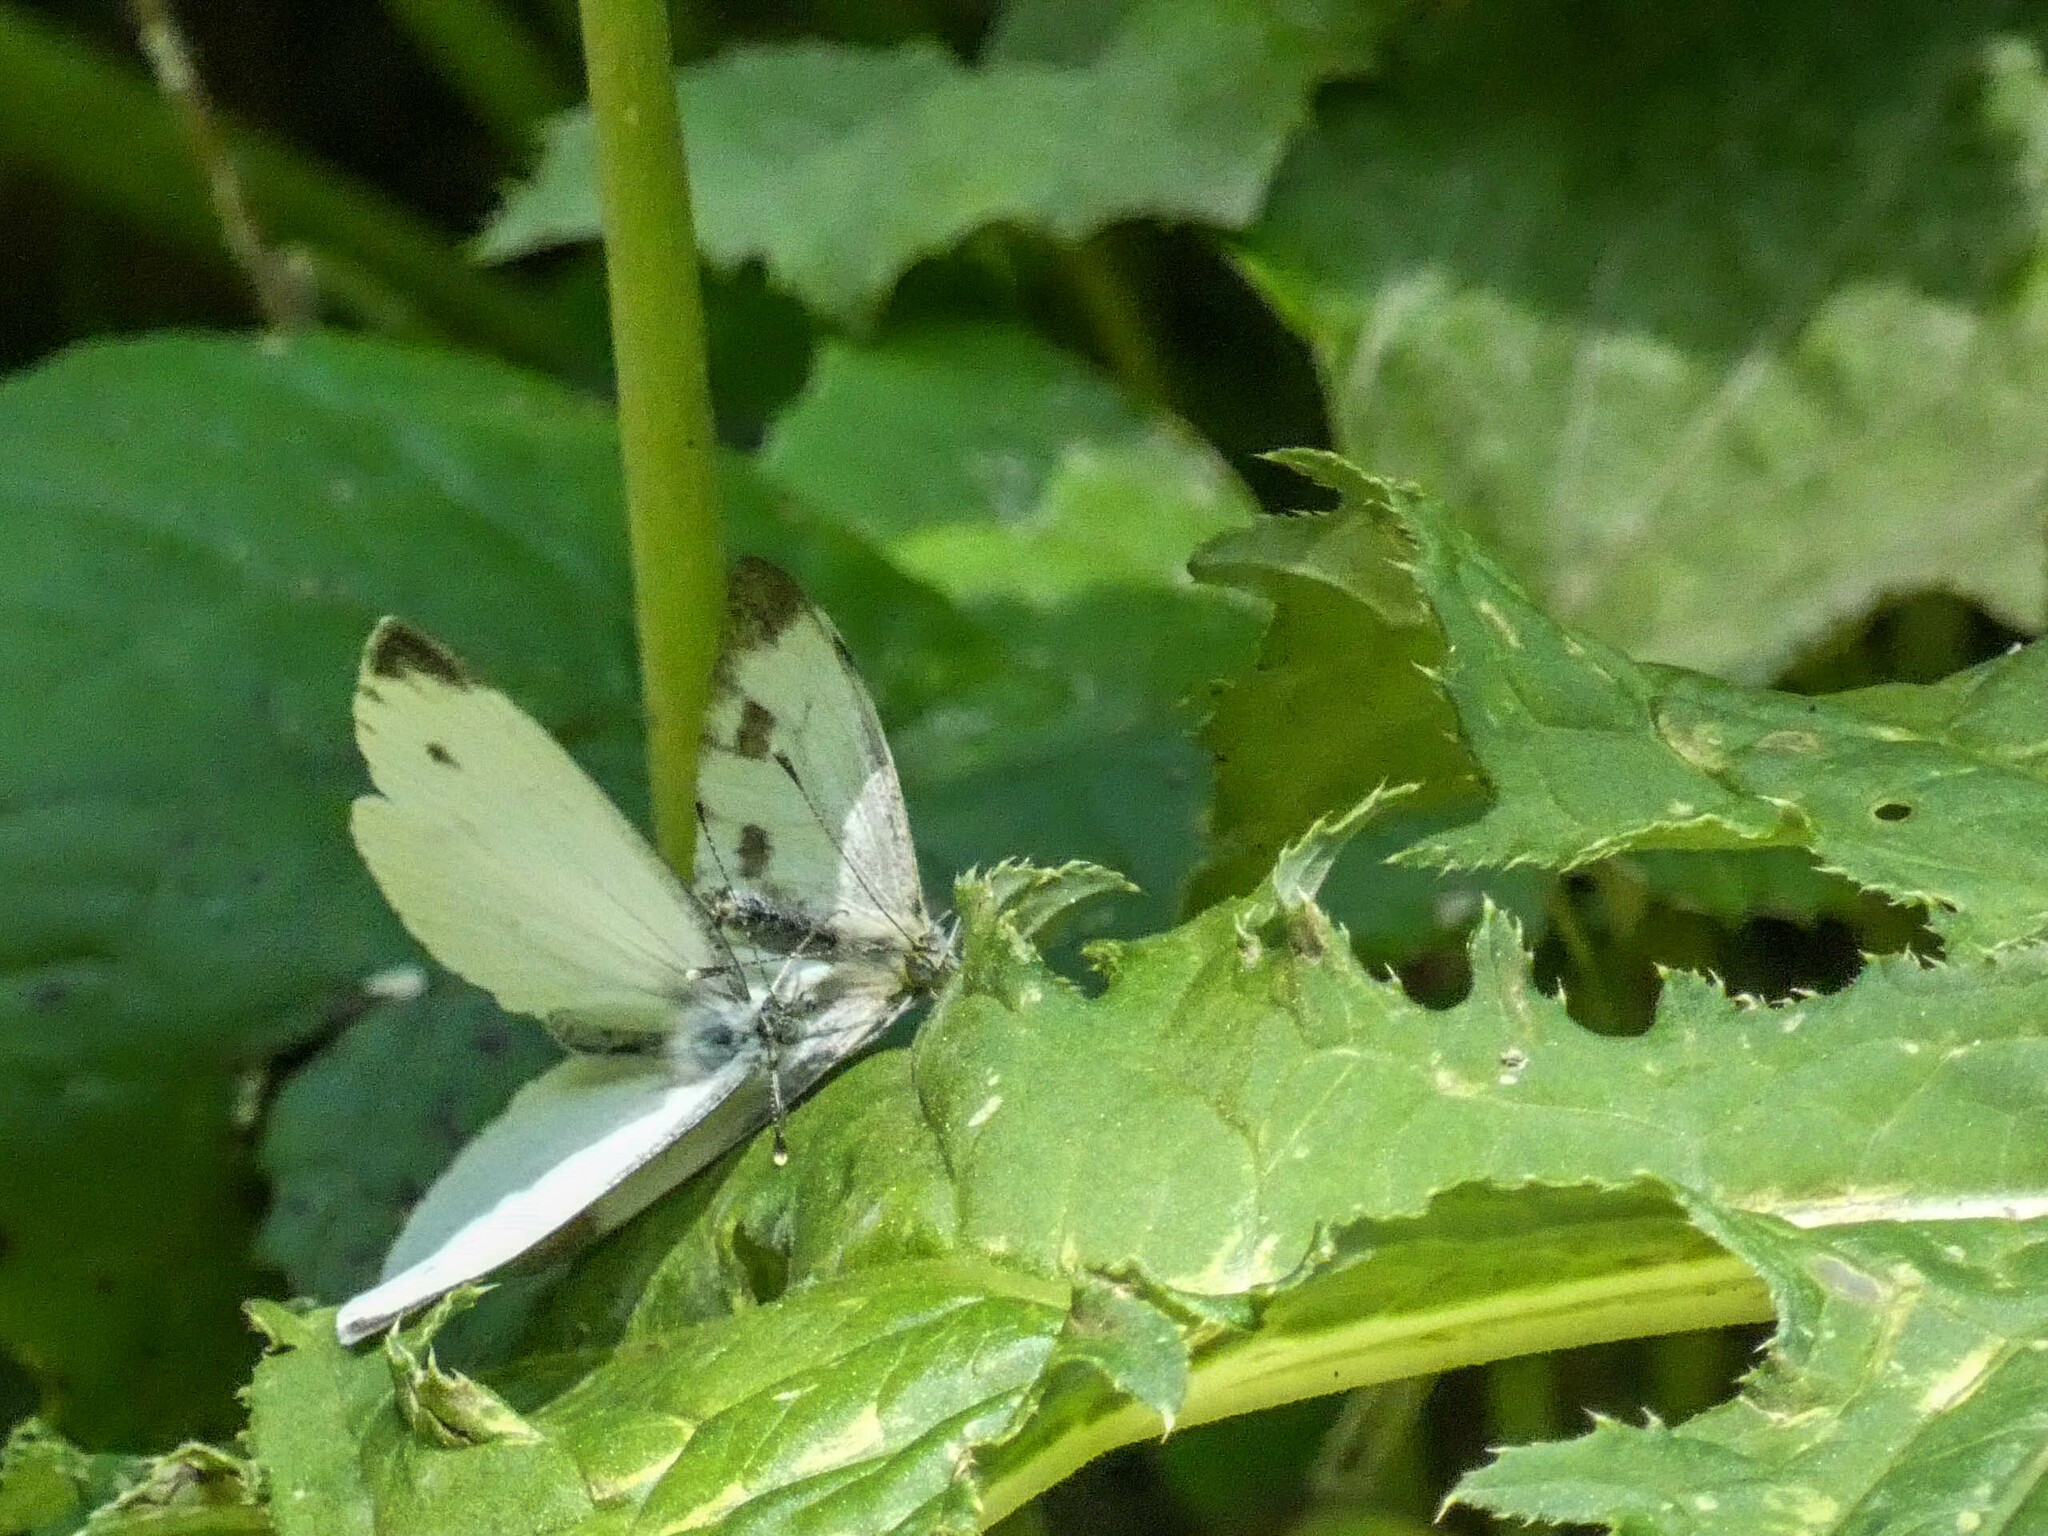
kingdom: Animalia
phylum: Arthropoda
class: Insecta
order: Lepidoptera
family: Pieridae
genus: Pieris
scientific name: Pieris napi
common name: Green-veined white
